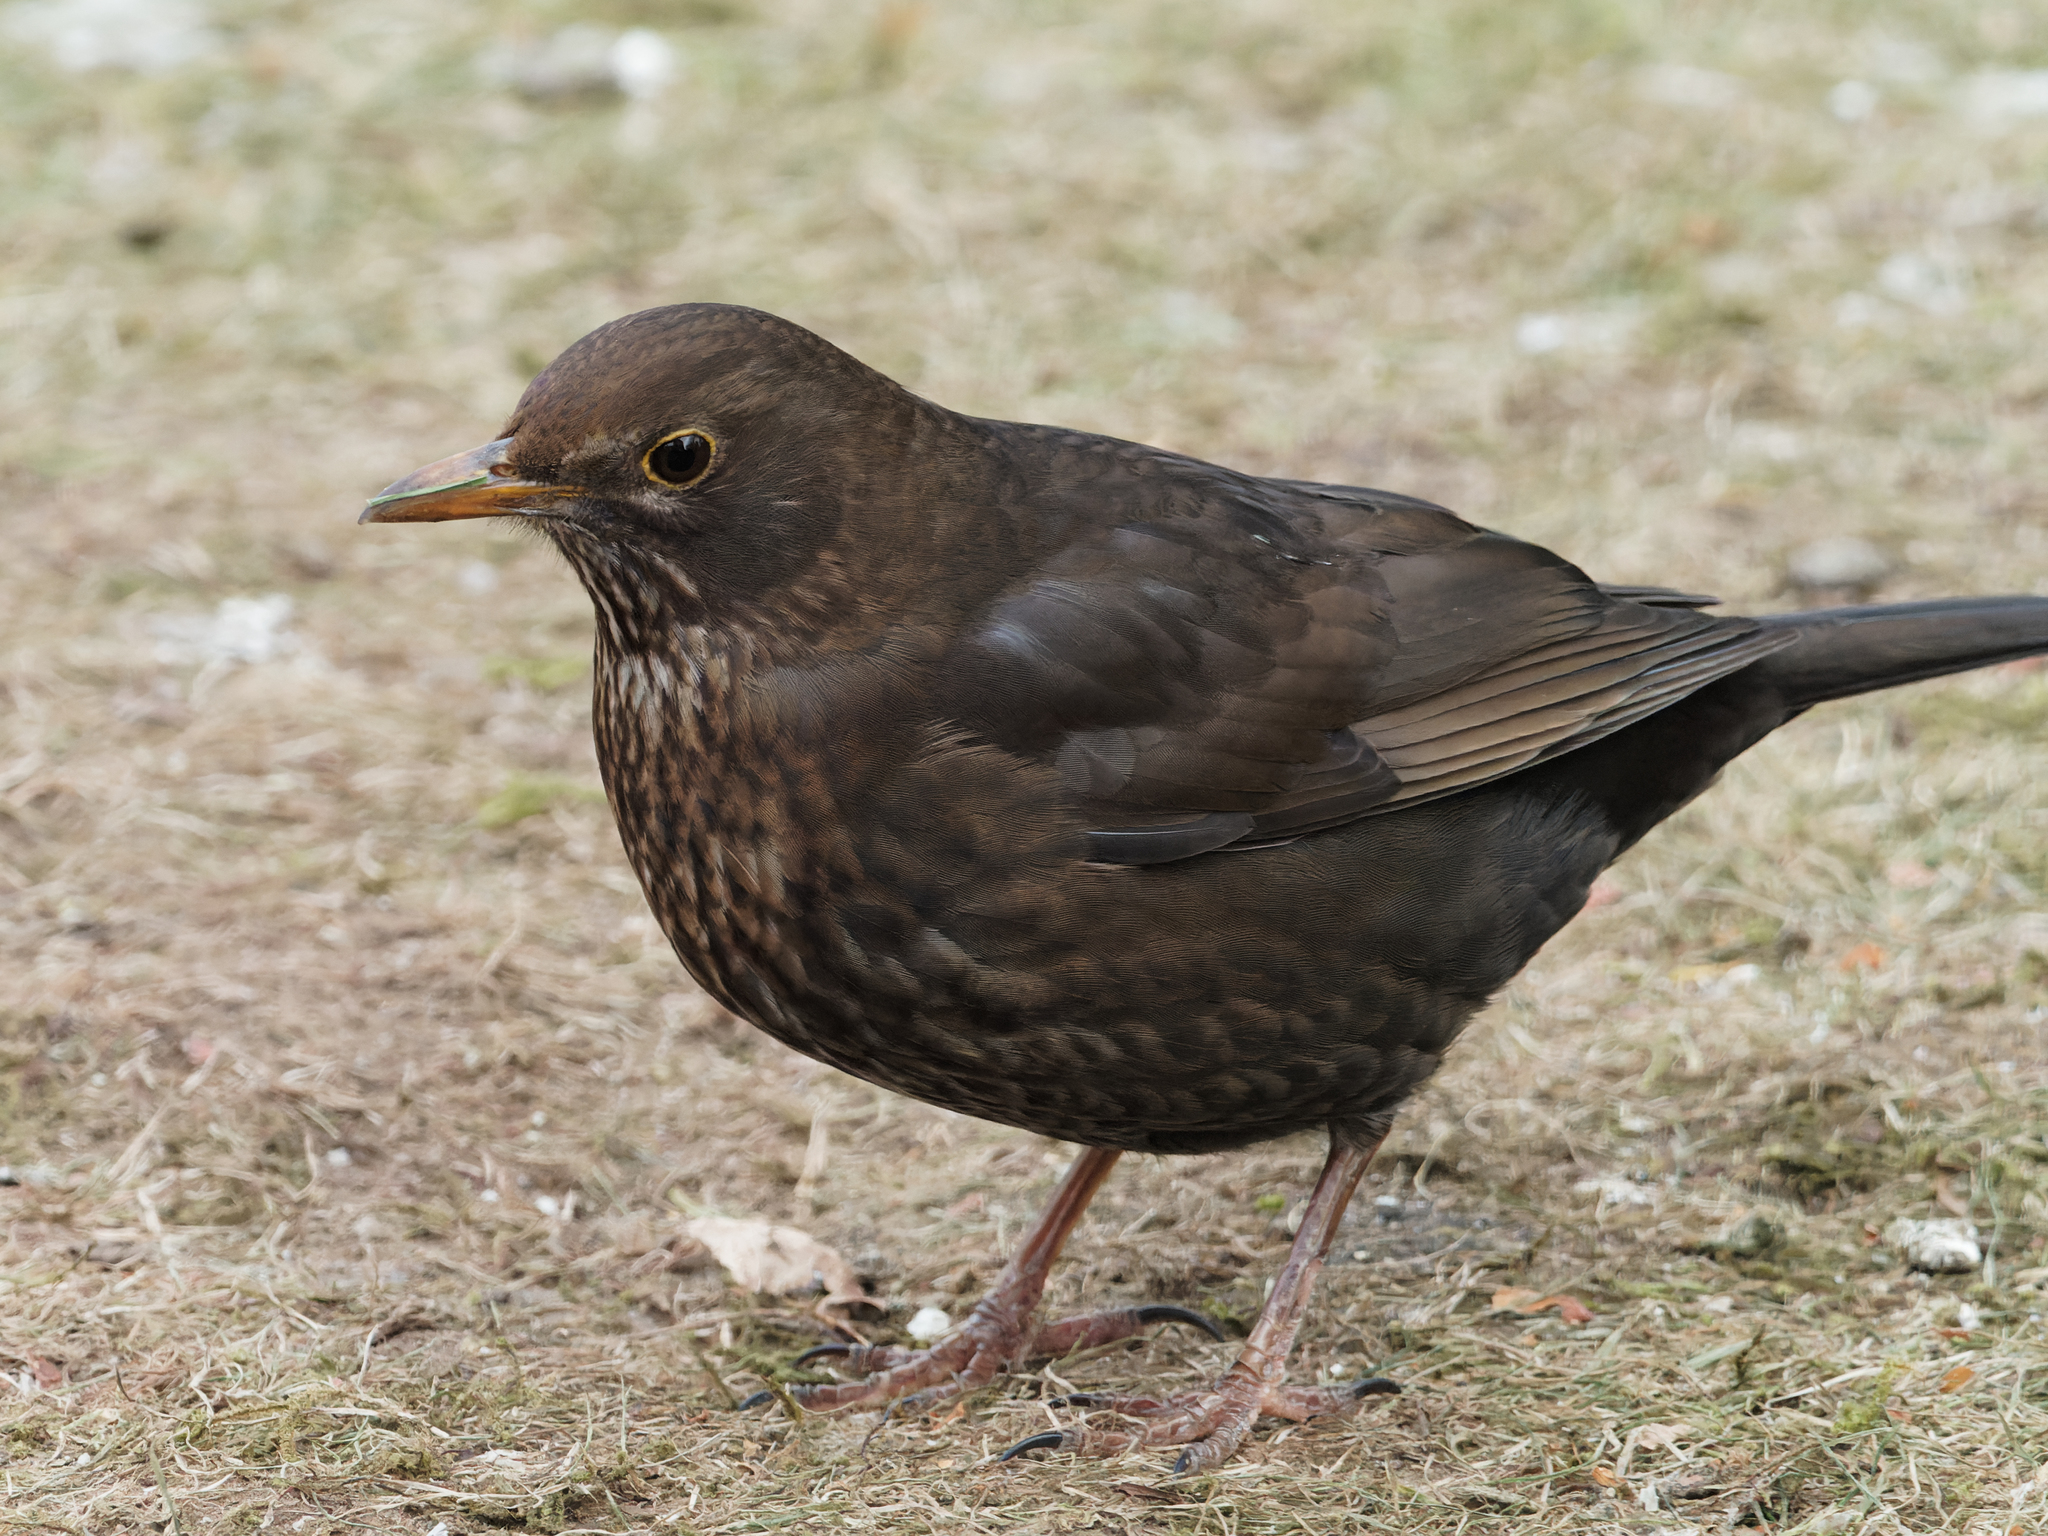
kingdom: Animalia
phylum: Chordata
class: Aves
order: Passeriformes
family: Turdidae
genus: Turdus
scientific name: Turdus merula
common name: Common blackbird
